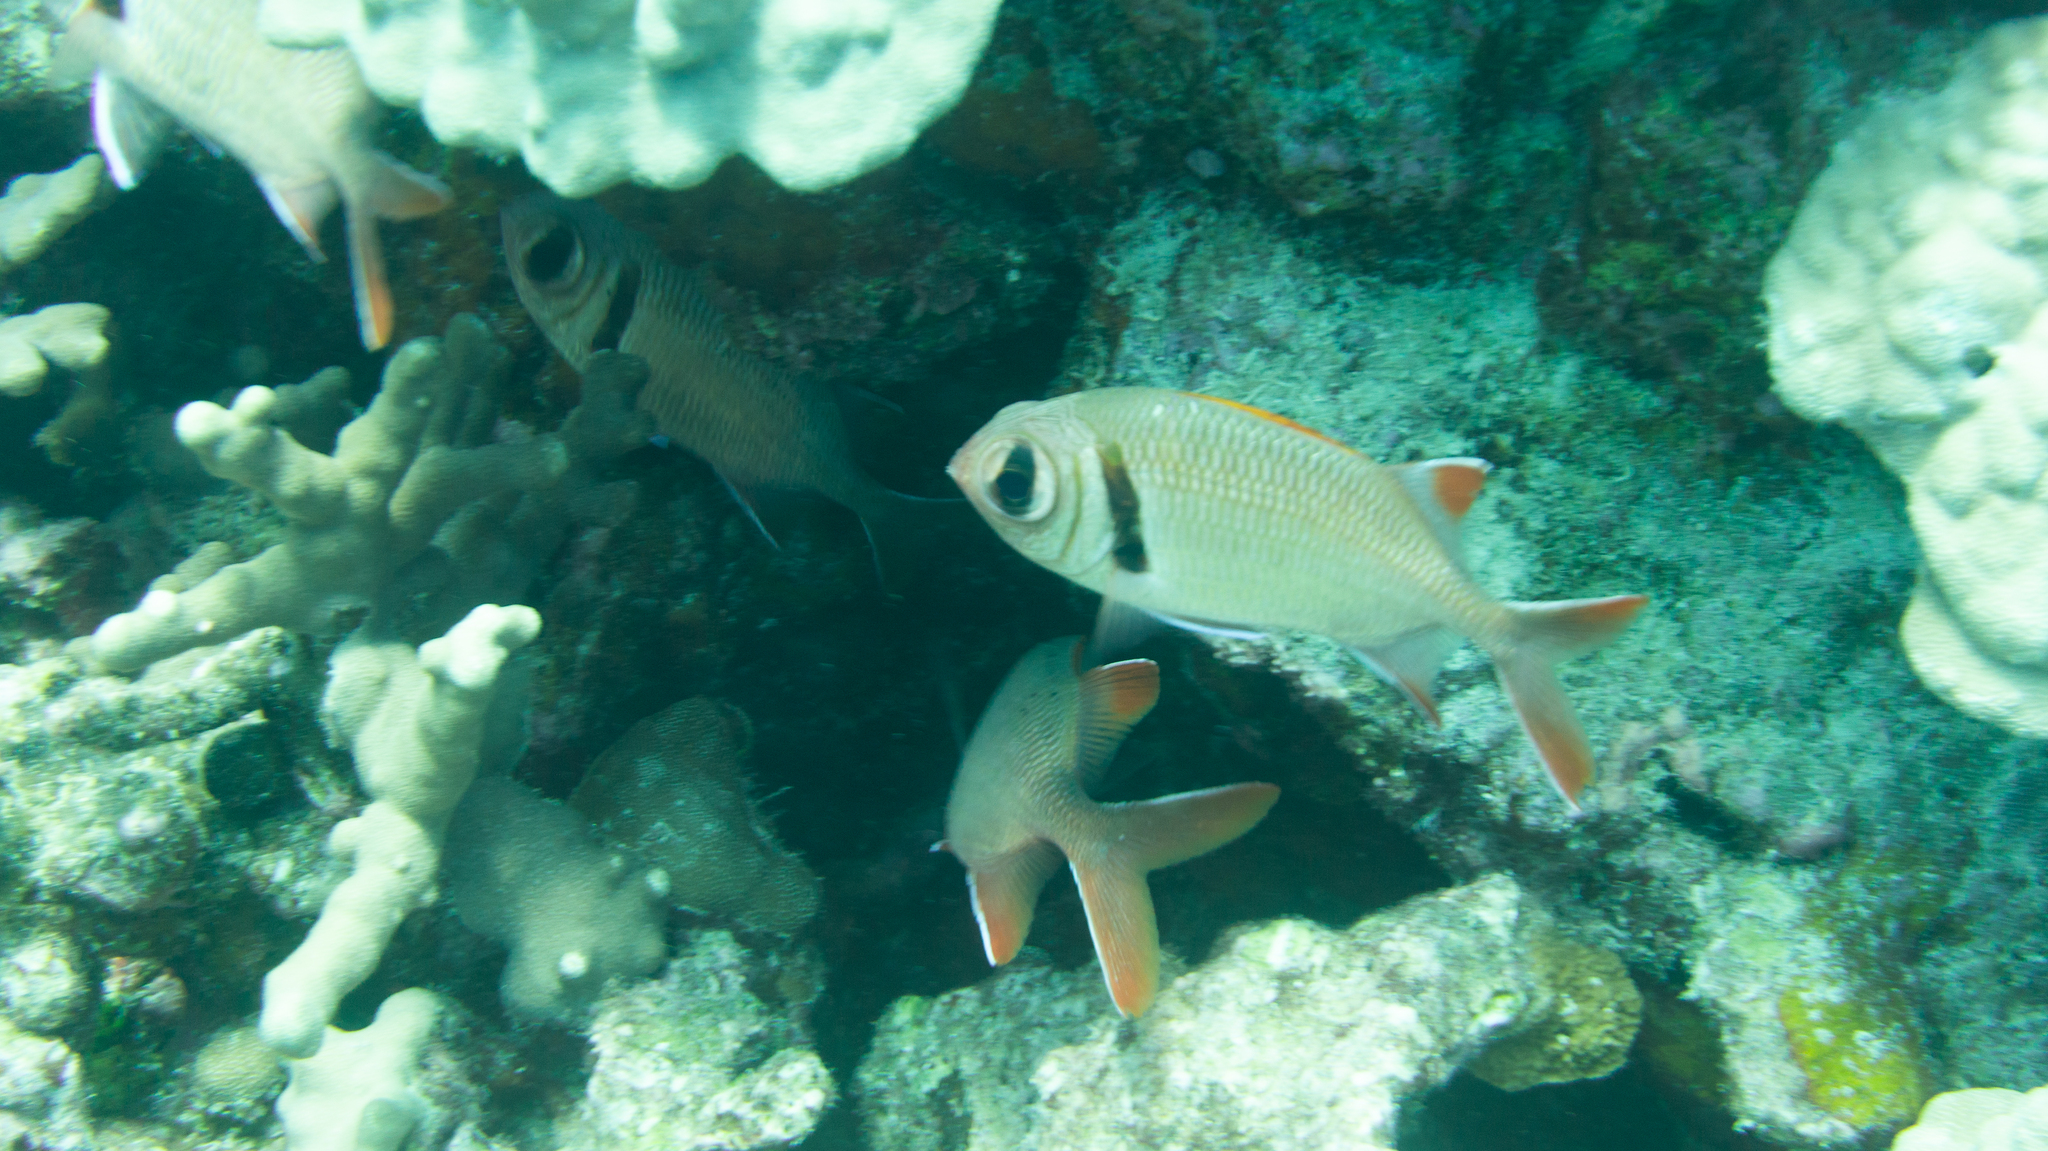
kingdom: Animalia
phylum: Chordata
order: Beryciformes
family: Holocentridae
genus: Myripristis
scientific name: Myripristis kuntee
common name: Epaulette soldierfish
